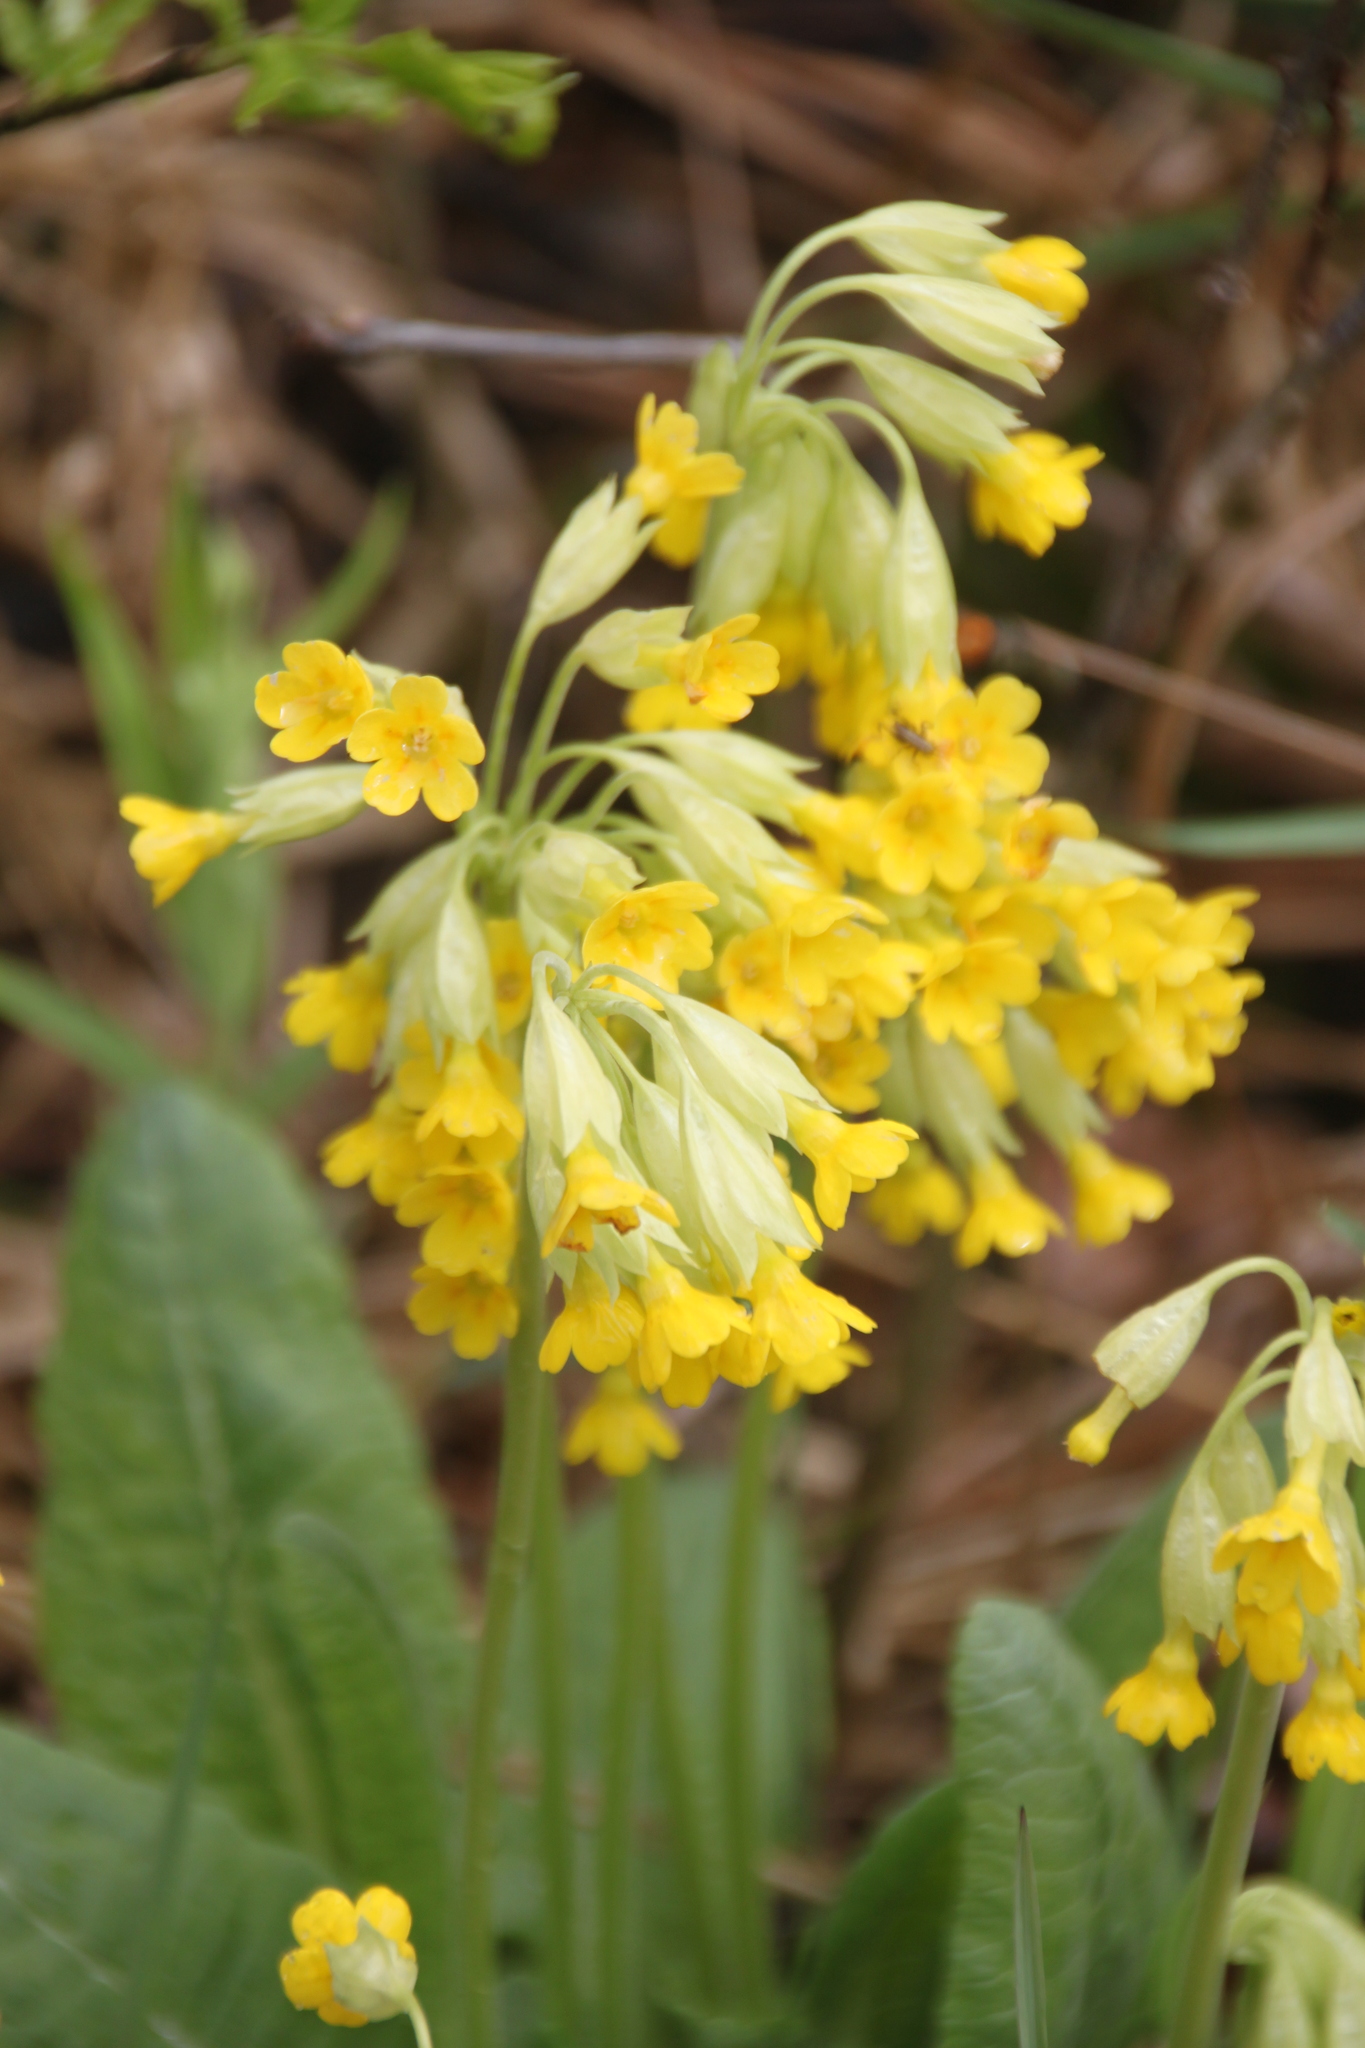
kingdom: Plantae
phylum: Tracheophyta
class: Magnoliopsida
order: Ericales
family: Primulaceae
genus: Primula
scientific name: Primula veris
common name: Cowslip
